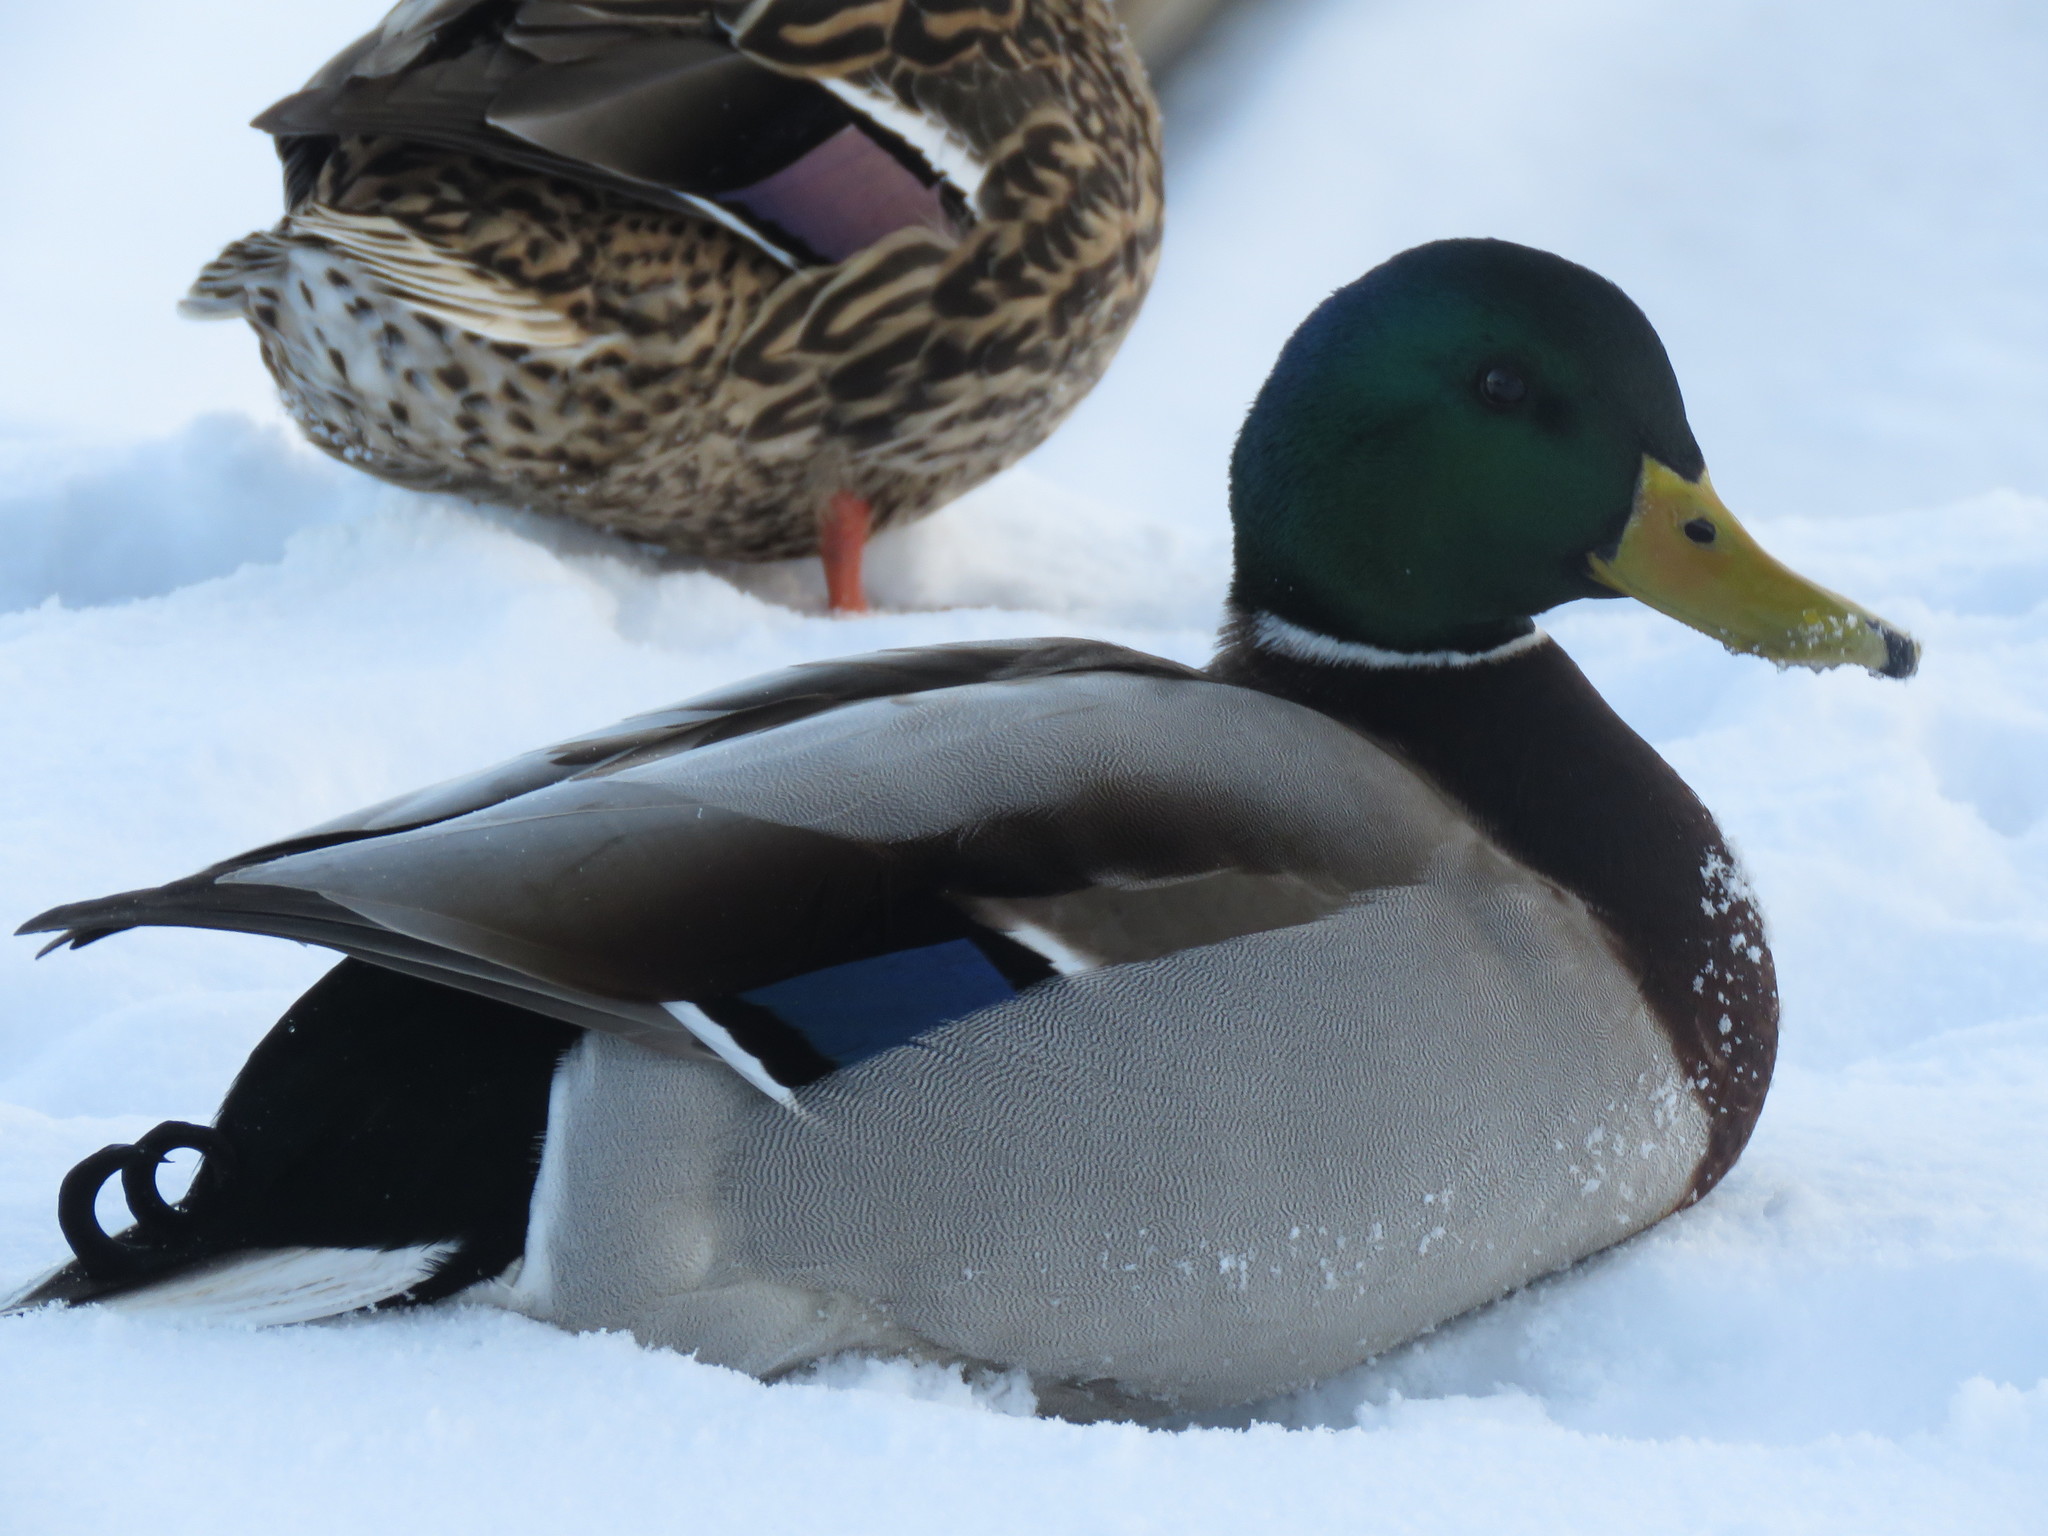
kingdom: Animalia
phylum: Chordata
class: Aves
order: Anseriformes
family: Anatidae
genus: Anas
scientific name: Anas platyrhynchos
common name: Mallard
